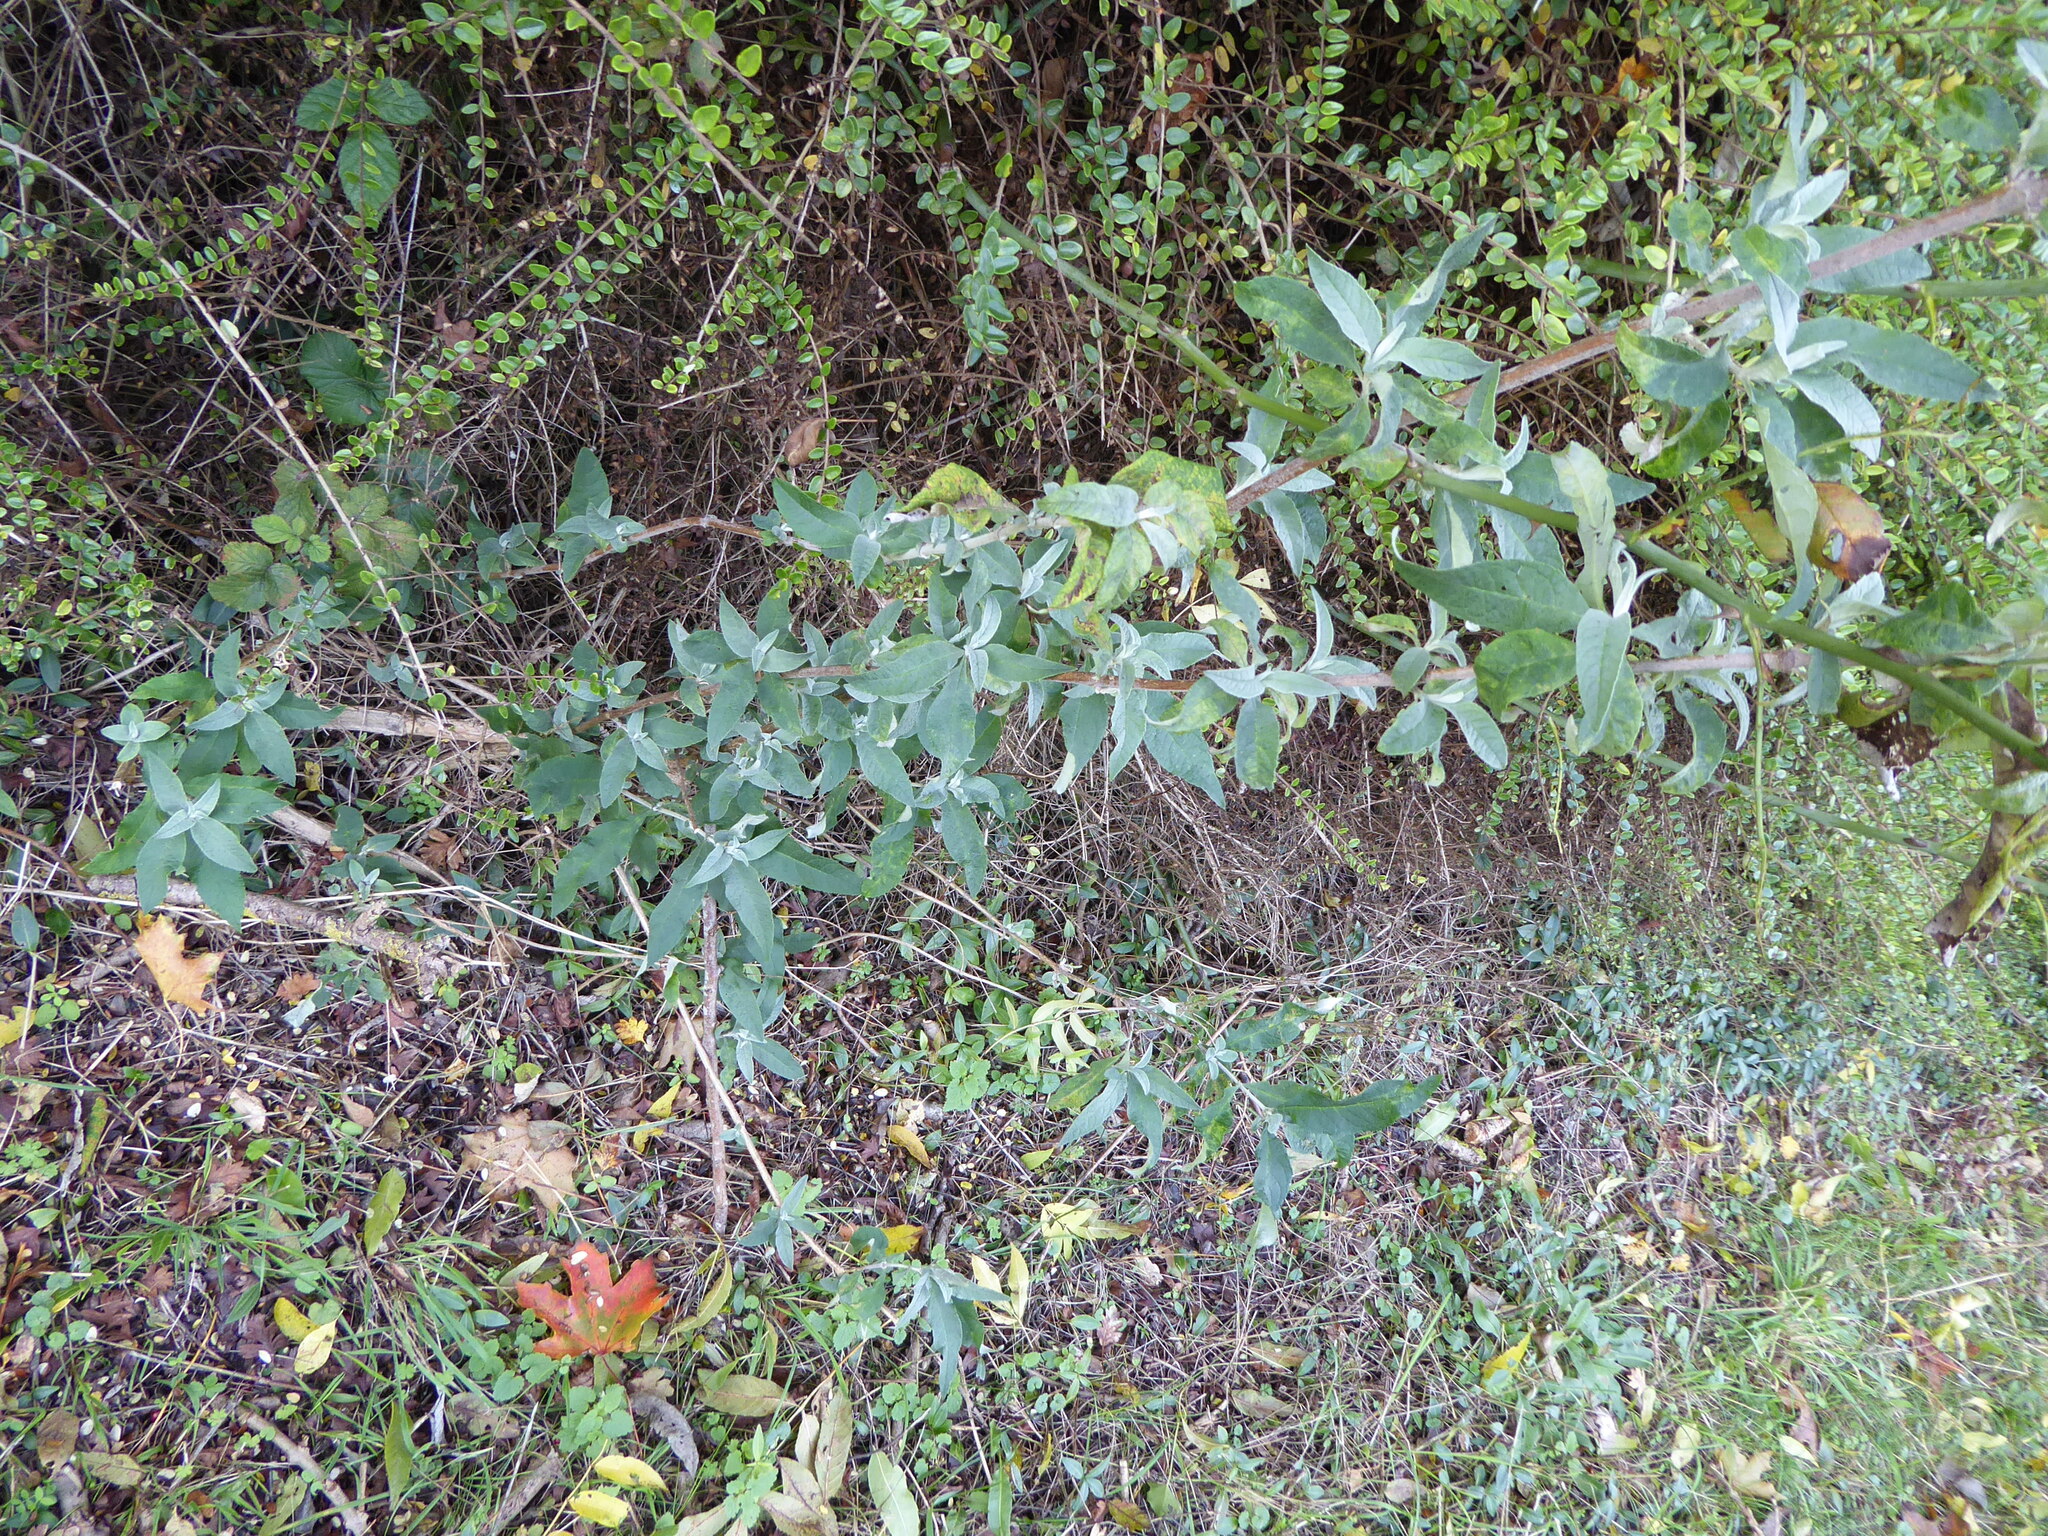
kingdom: Plantae
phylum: Tracheophyta
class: Magnoliopsida
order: Lamiales
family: Scrophulariaceae
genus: Buddleja
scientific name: Buddleja davidii
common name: Butterfly-bush
